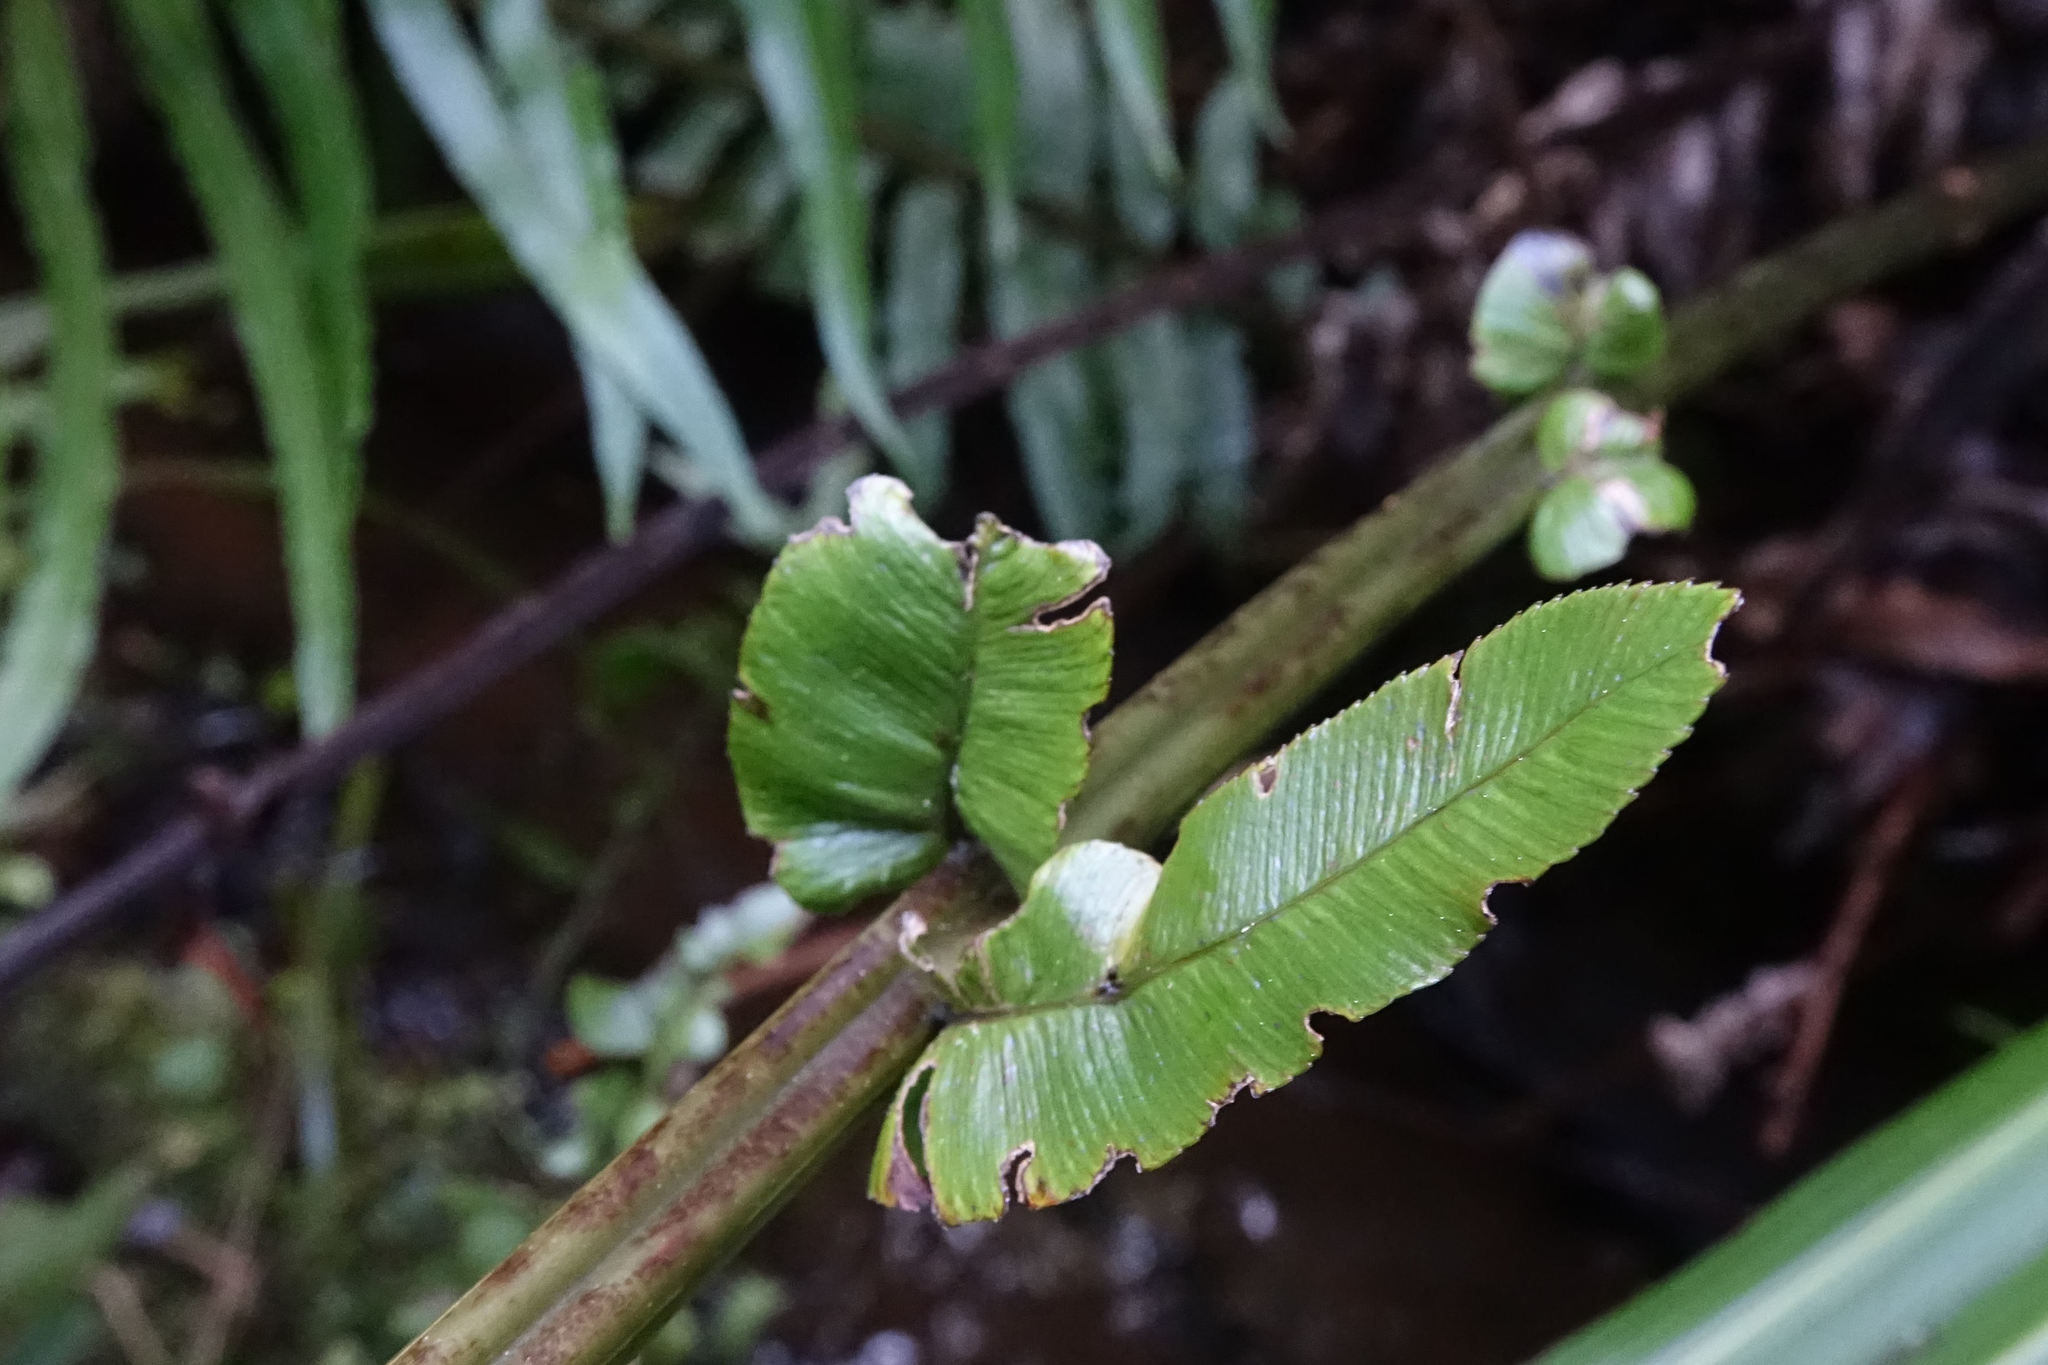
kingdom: Plantae
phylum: Tracheophyta
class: Polypodiopsida
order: Polypodiales
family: Blechnaceae
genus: Parablechnum
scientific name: Parablechnum novae-zelandiae
